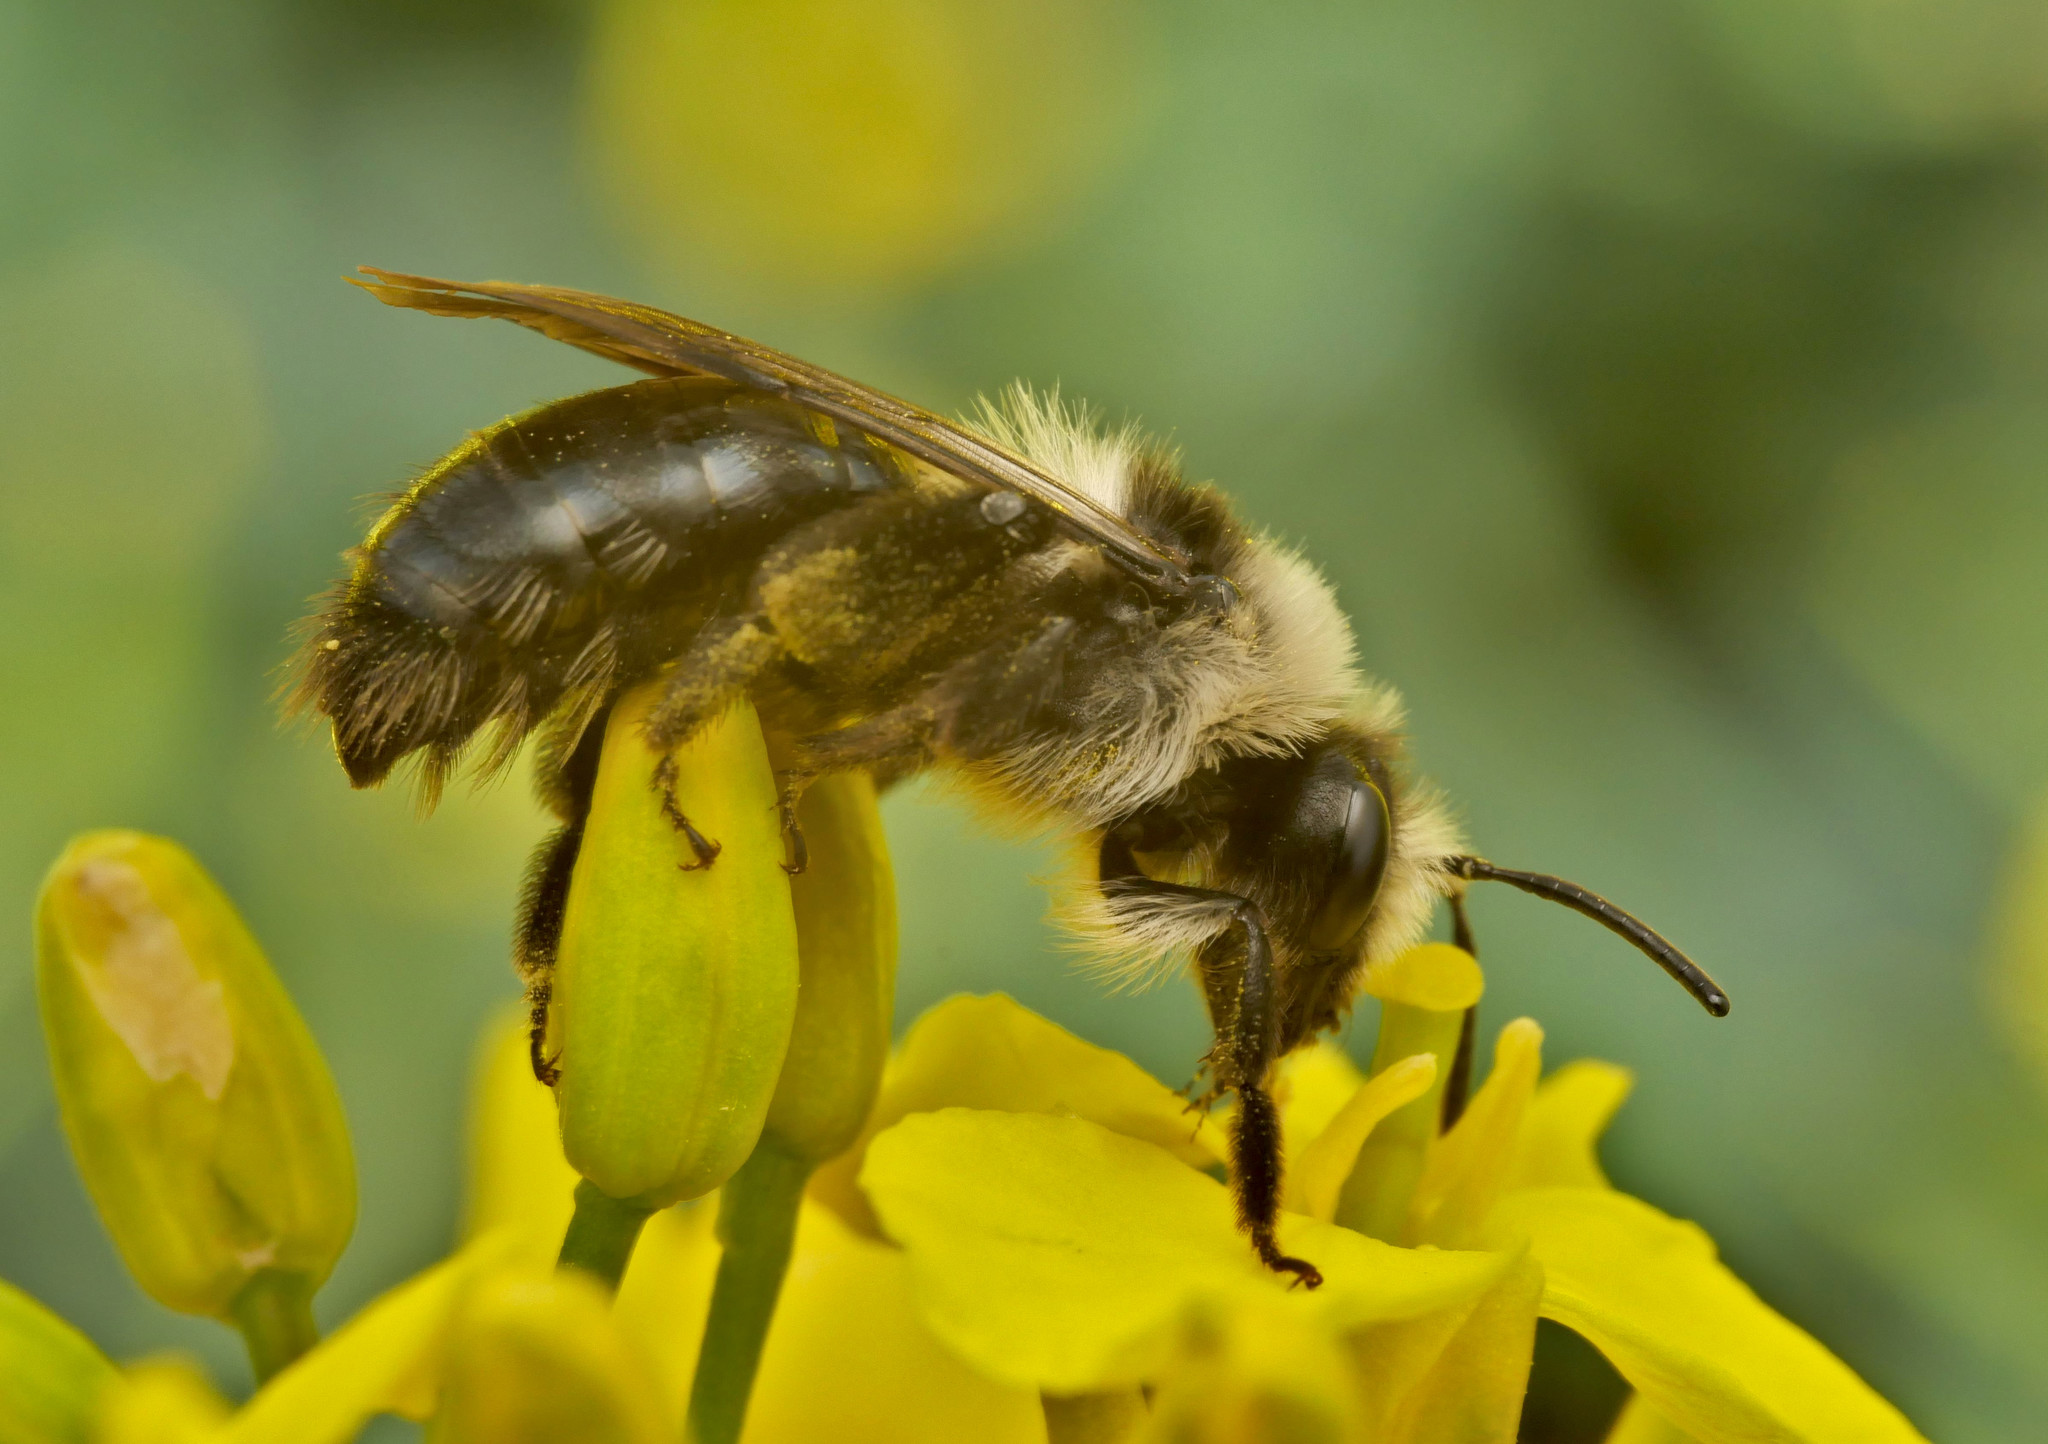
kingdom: Animalia
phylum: Arthropoda
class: Insecta
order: Hymenoptera
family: Andrenidae
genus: Andrena
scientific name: Andrena cineraria
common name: Ashy mining bee
